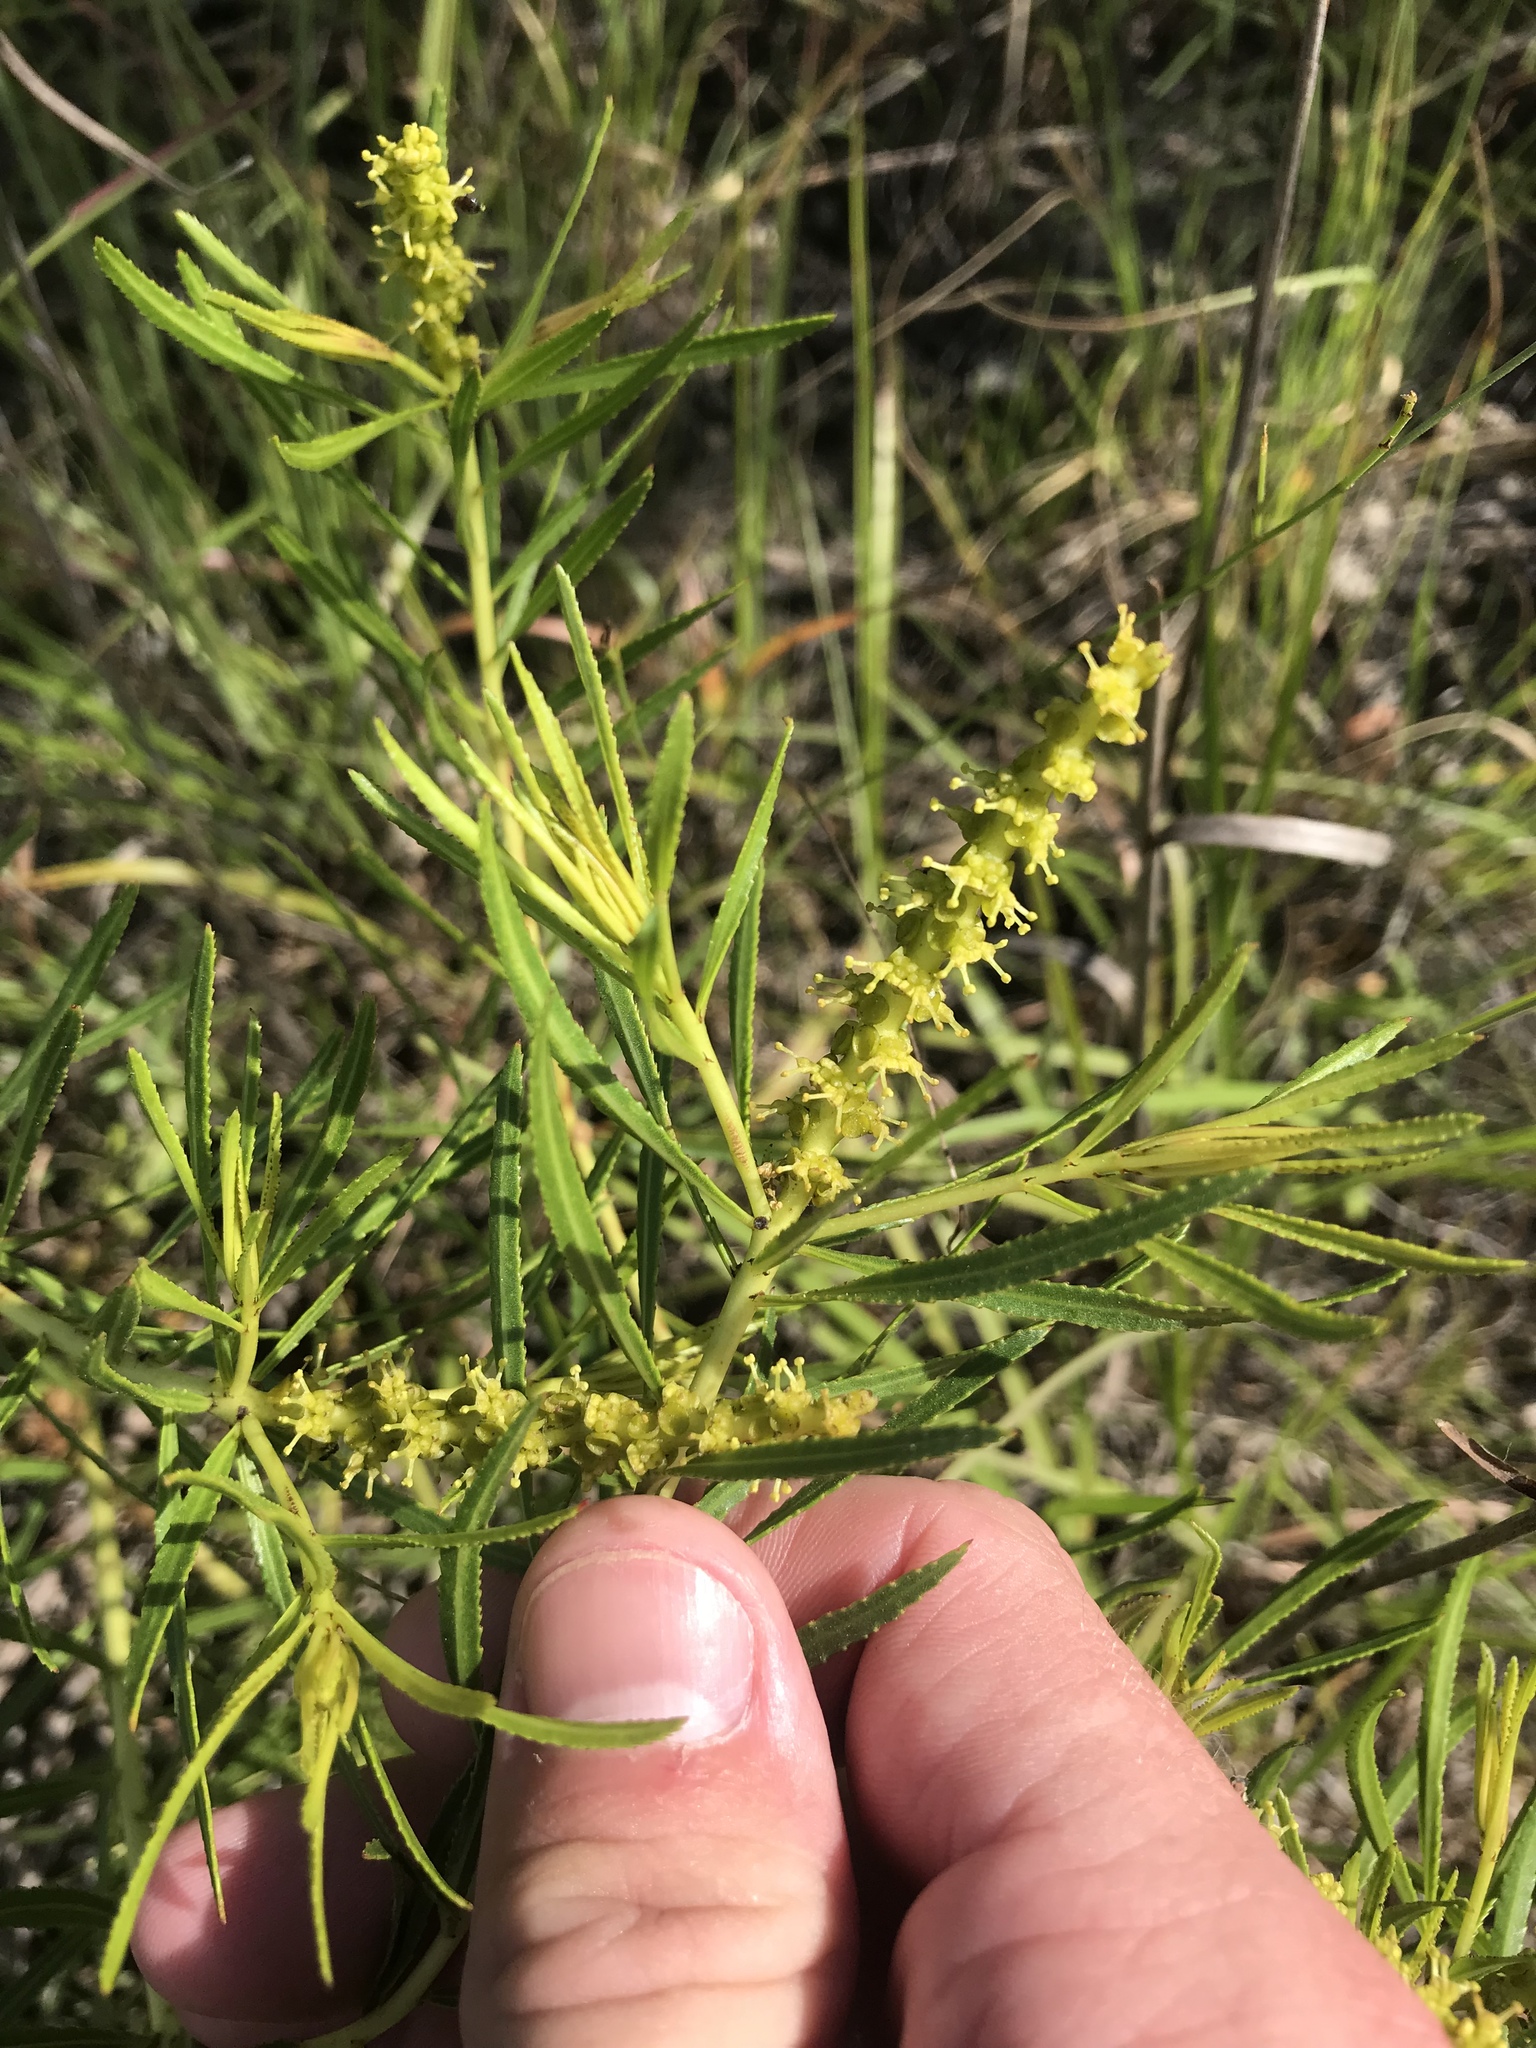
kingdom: Plantae
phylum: Tracheophyta
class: Magnoliopsida
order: Malpighiales
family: Euphorbiaceae
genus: Stillingia
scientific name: Stillingia texana
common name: Texas stillingia
